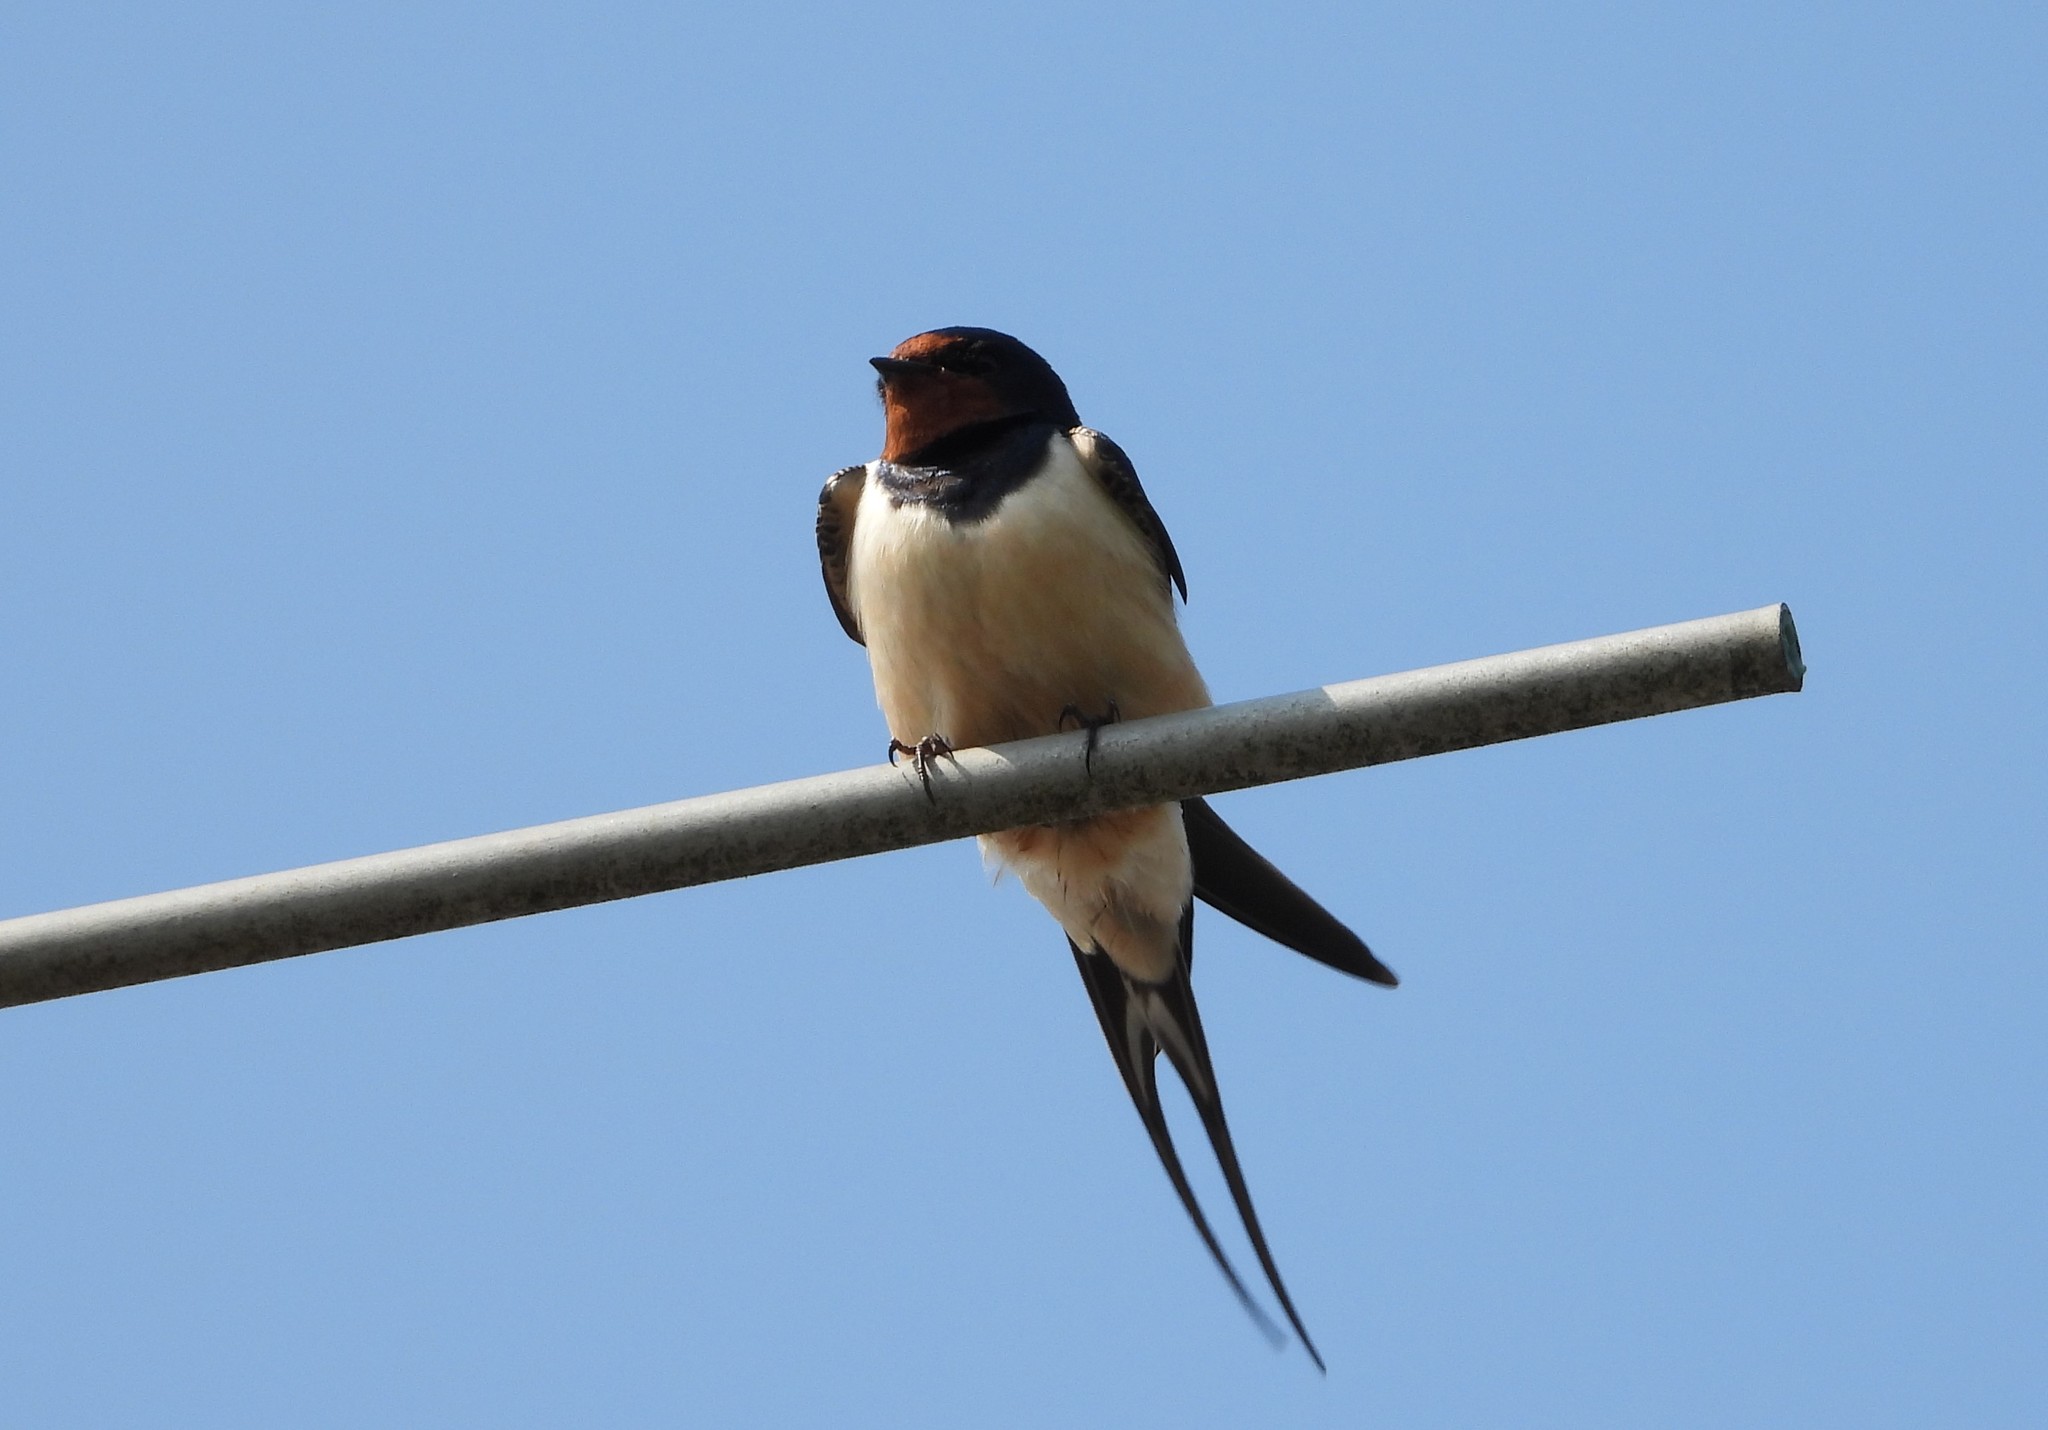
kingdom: Animalia
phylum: Chordata
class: Aves
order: Passeriformes
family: Hirundinidae
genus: Hirundo
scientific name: Hirundo rustica
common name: Barn swallow
